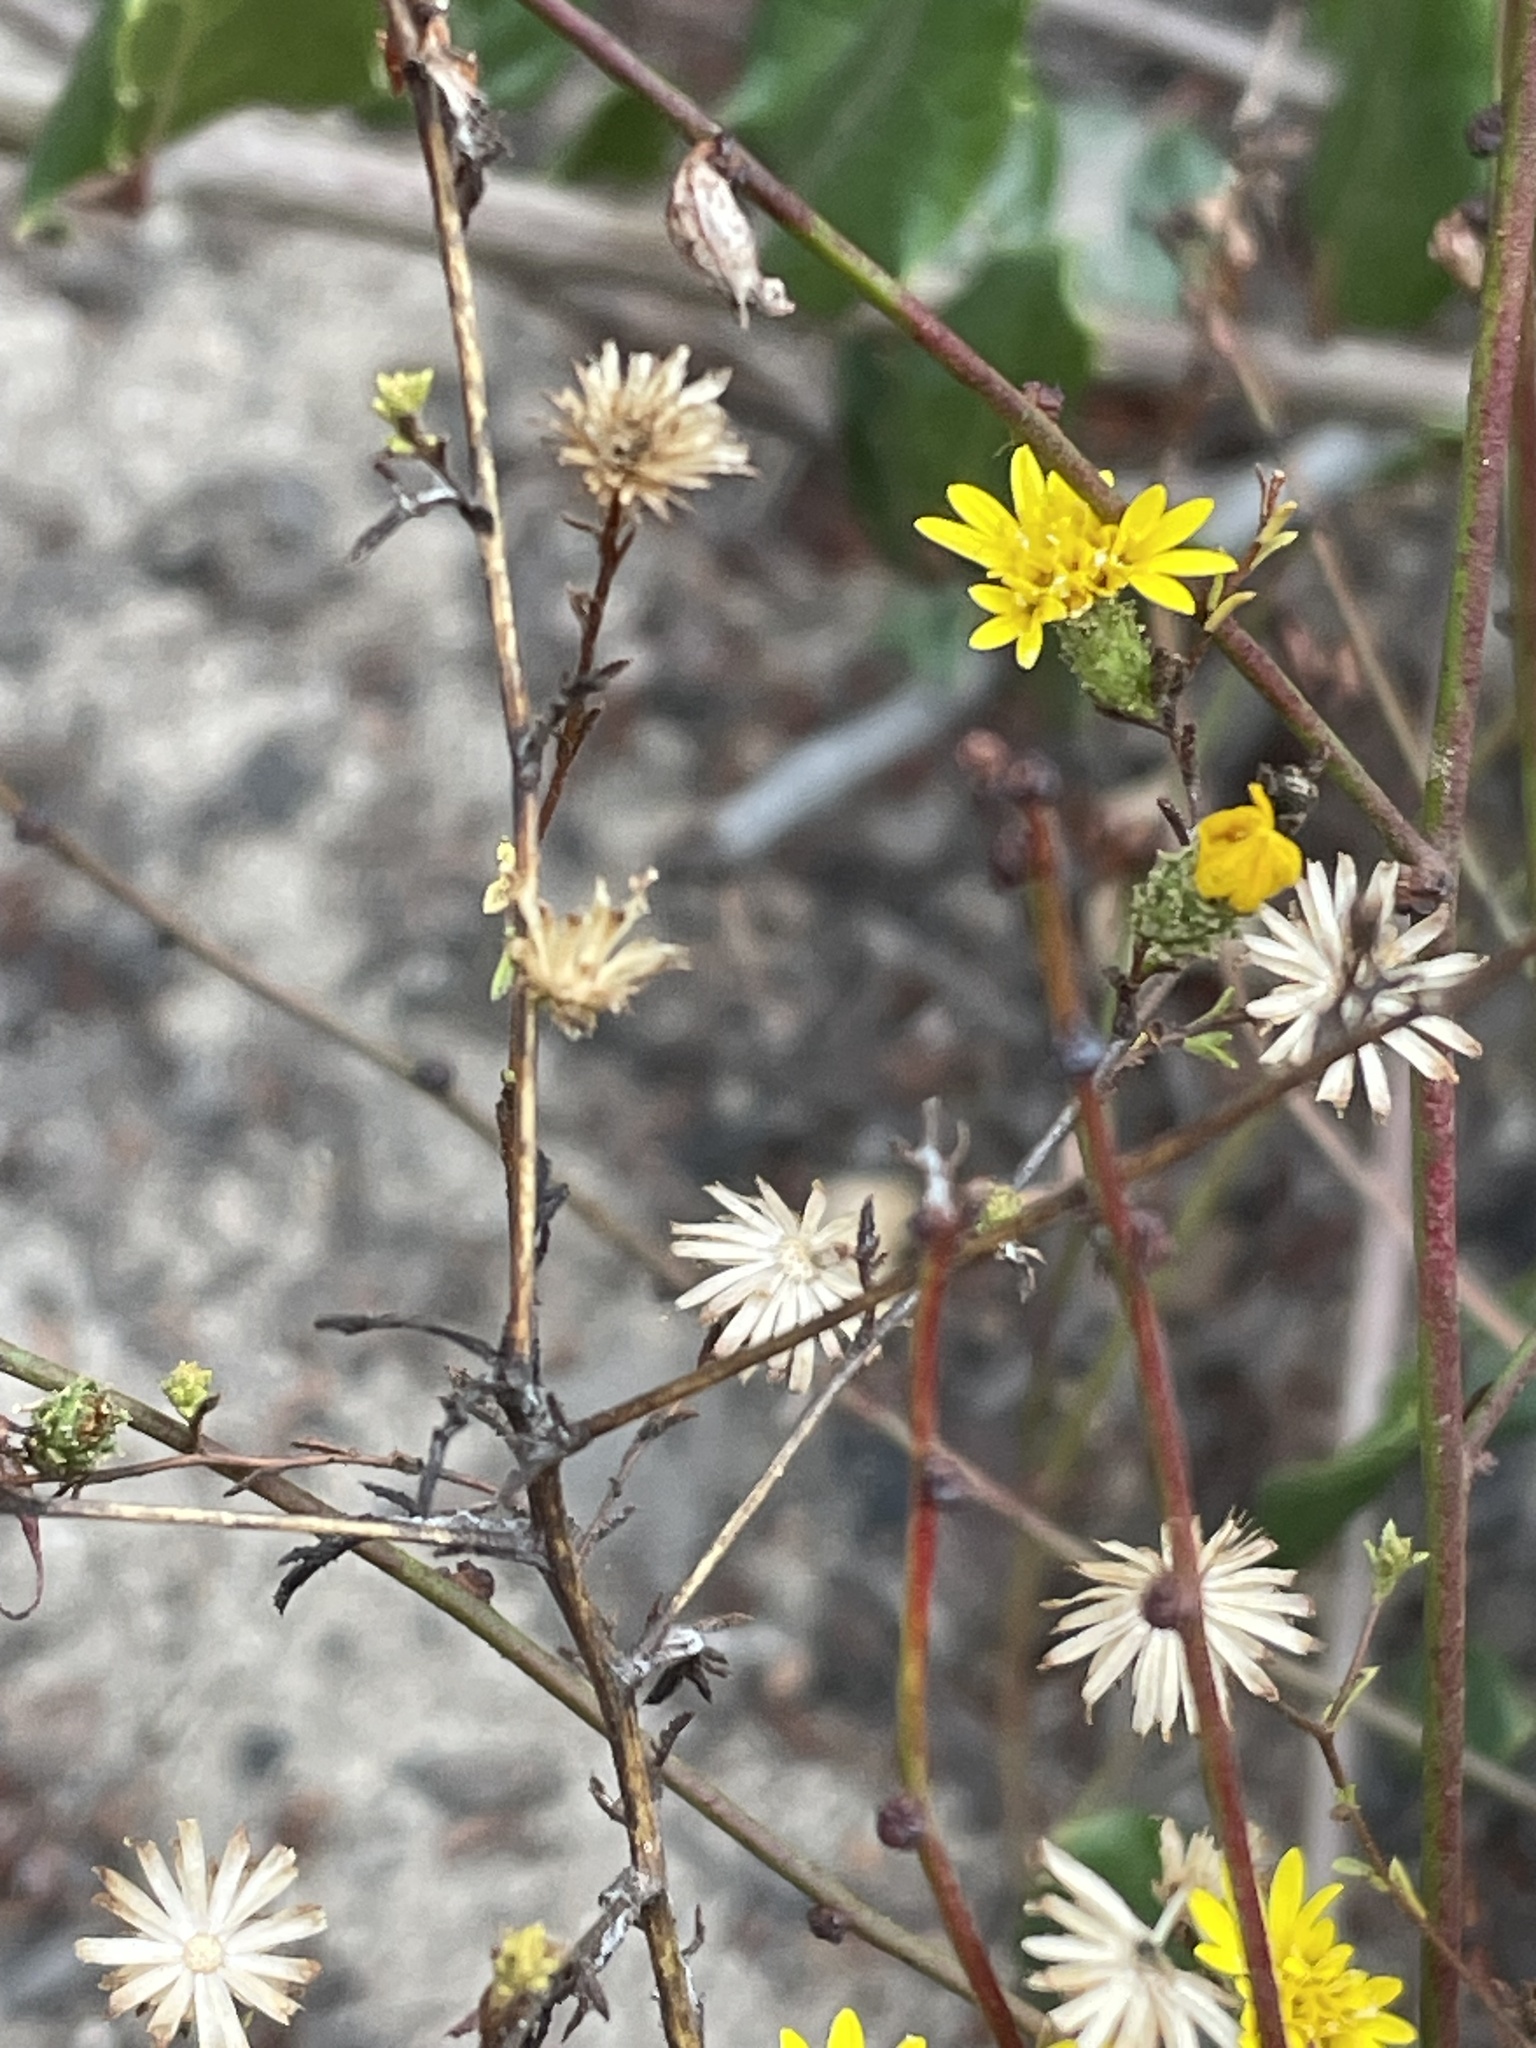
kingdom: Plantae
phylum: Tracheophyta
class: Magnoliopsida
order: Asterales
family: Asteraceae
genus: Lessingia
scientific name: Lessingia pectinata
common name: Valley lessingia
